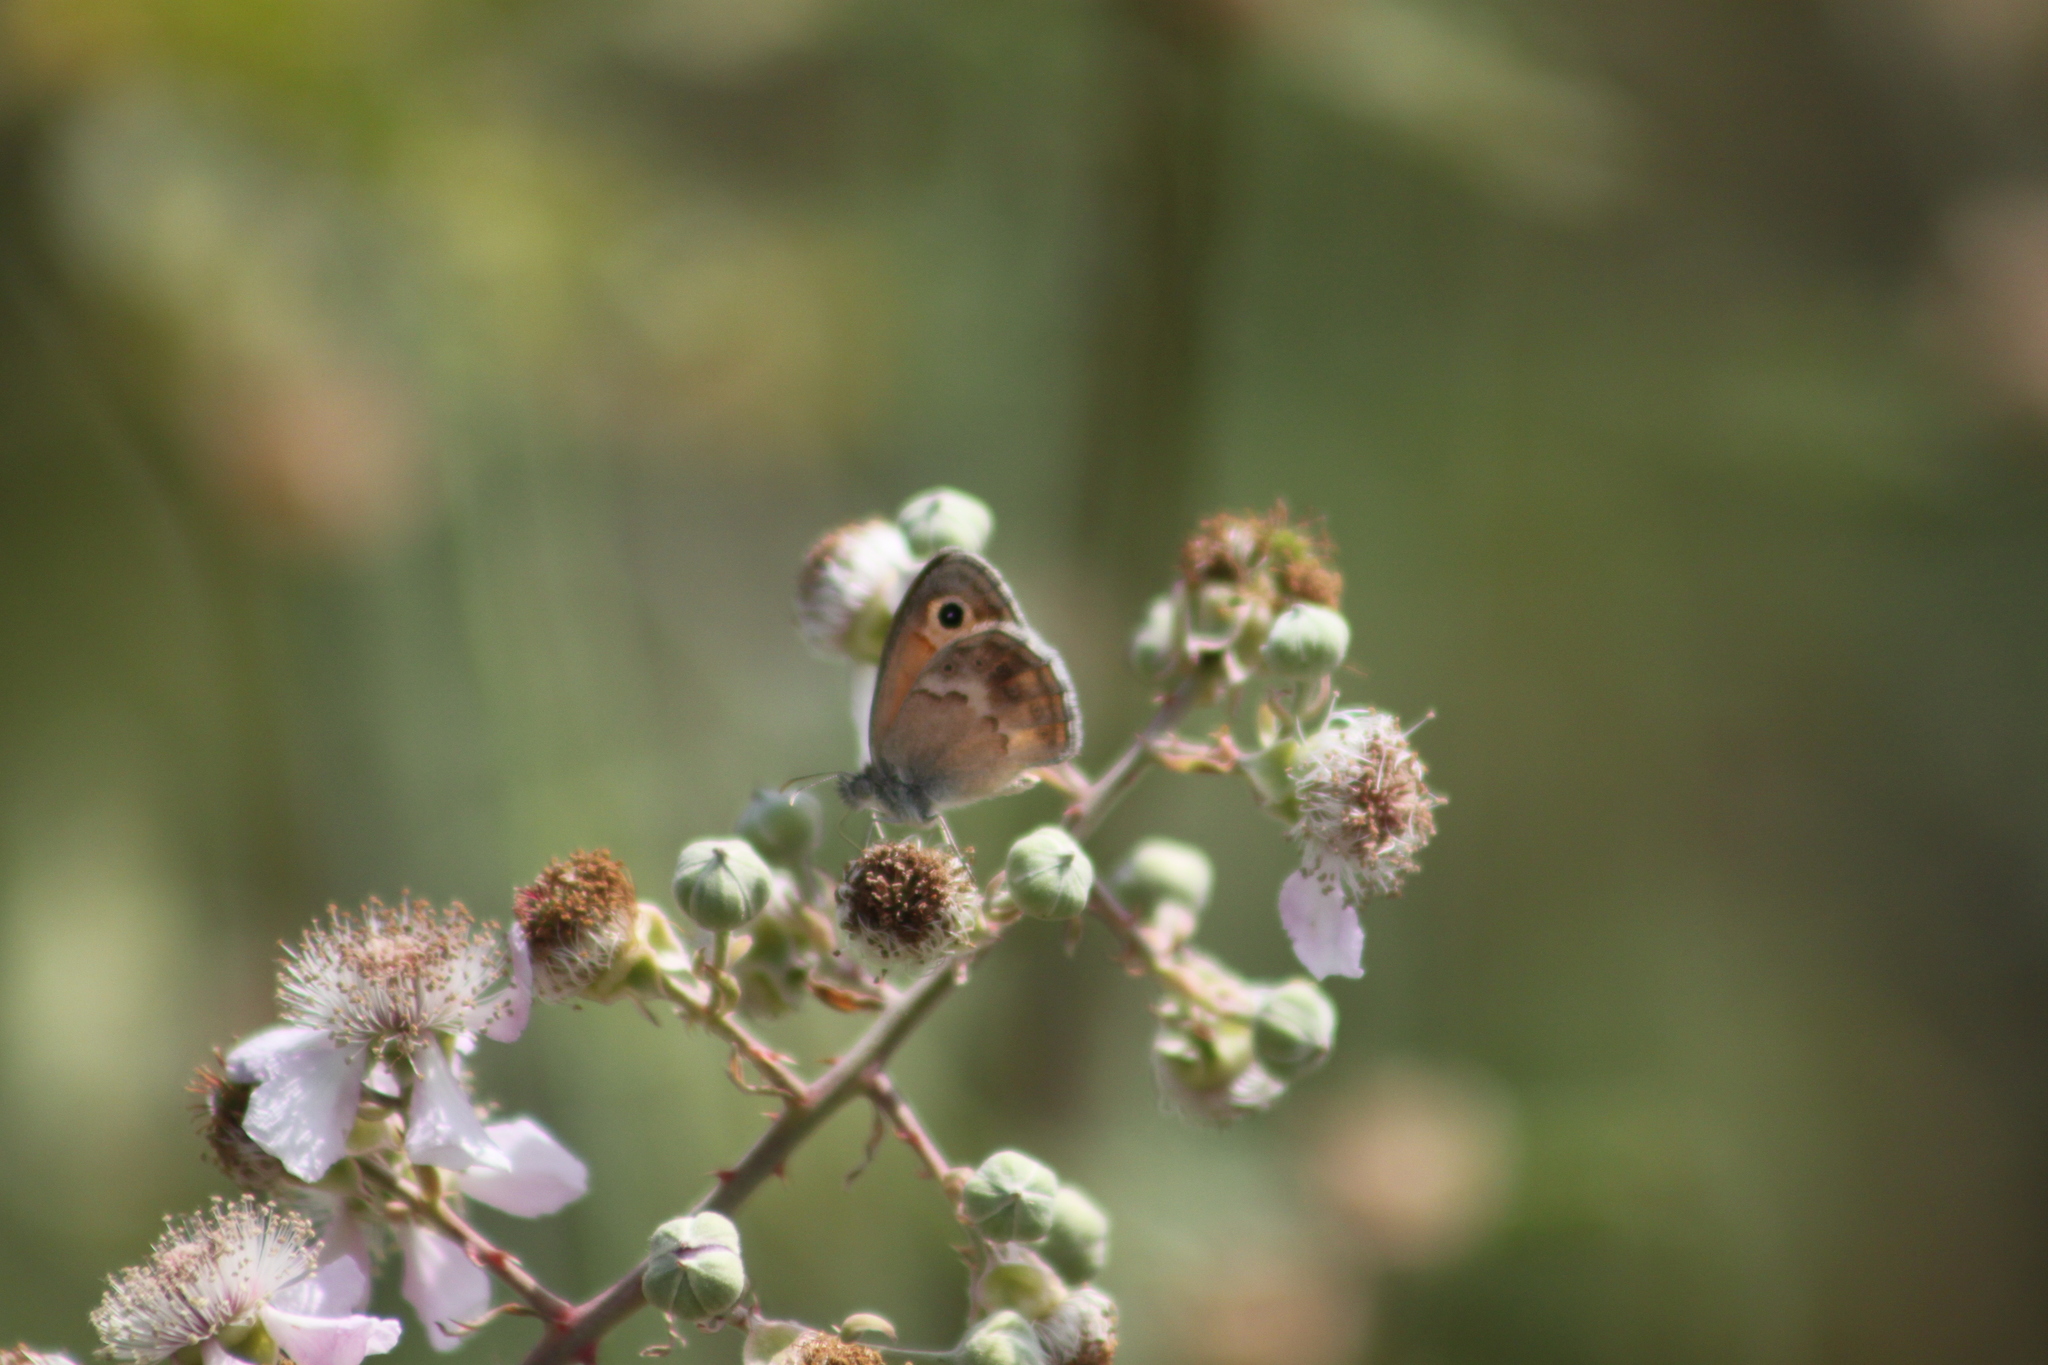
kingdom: Animalia
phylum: Arthropoda
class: Insecta
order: Lepidoptera
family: Nymphalidae
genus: Coenonympha
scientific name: Coenonympha pamphilus
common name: Small heath
